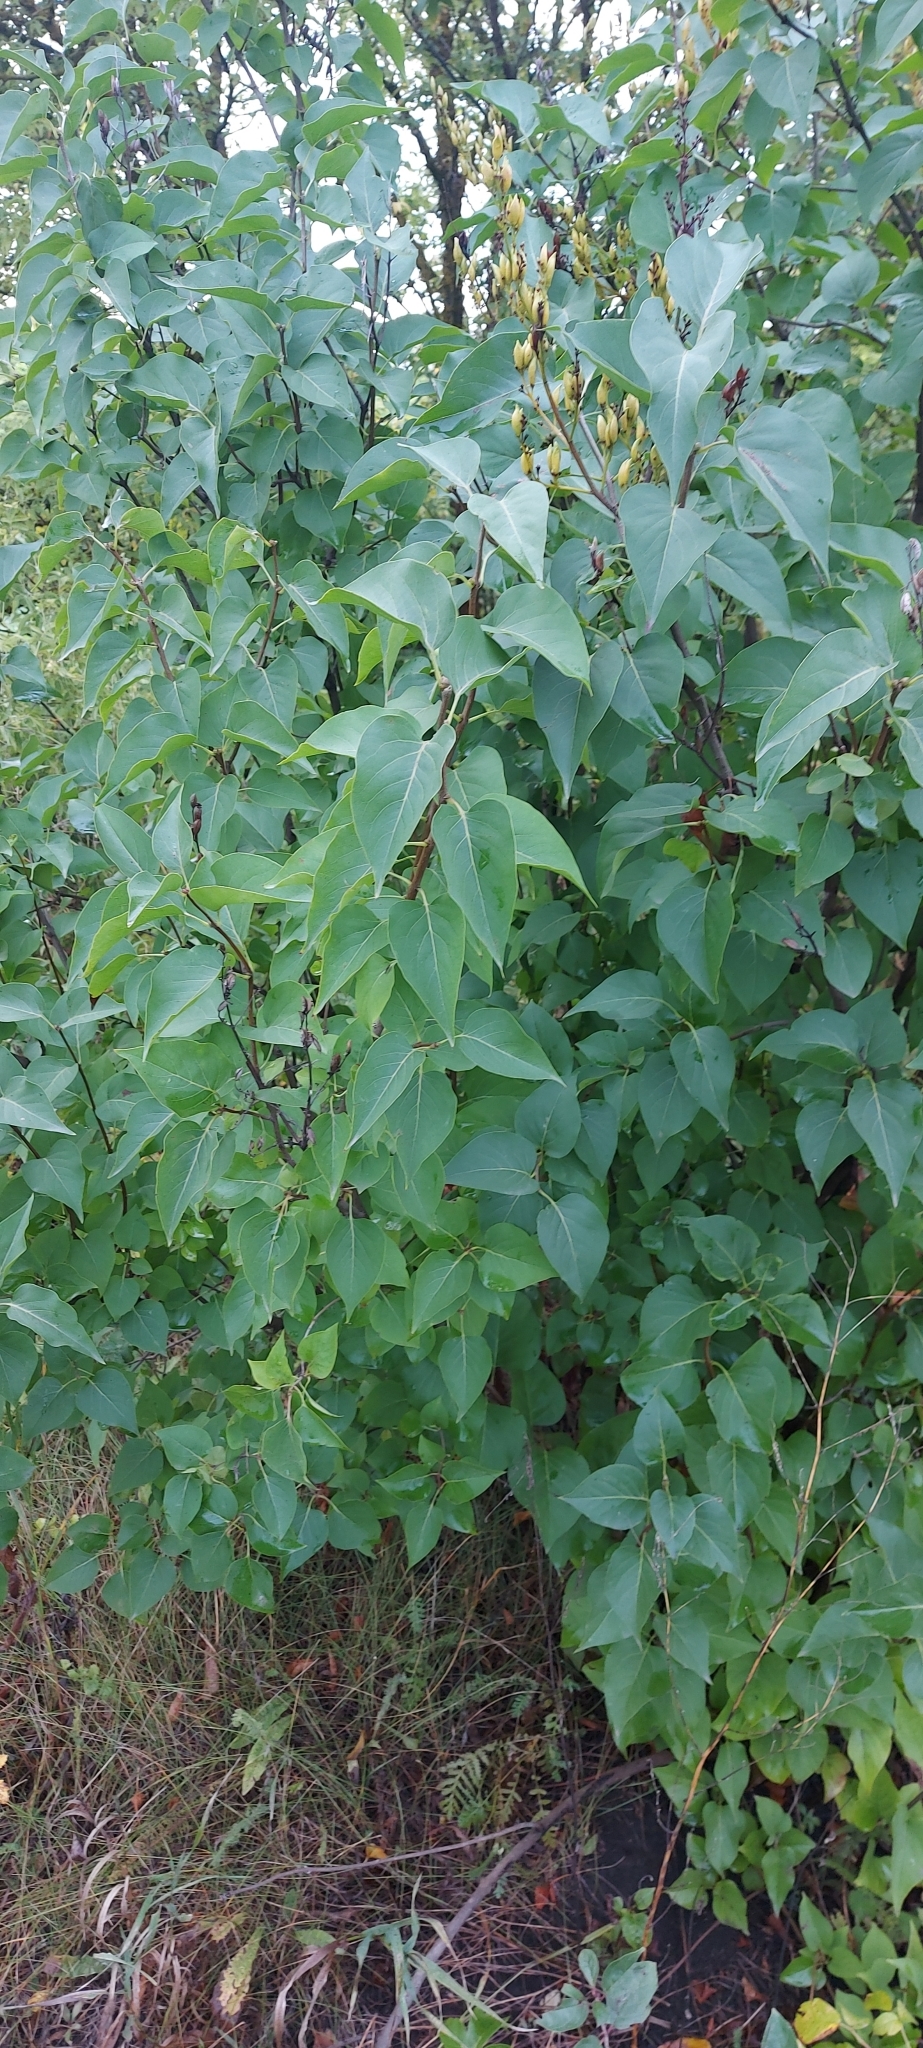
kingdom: Plantae
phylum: Tracheophyta
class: Magnoliopsida
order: Lamiales
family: Oleaceae
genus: Syringa
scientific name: Syringa vulgaris
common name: Common lilac
